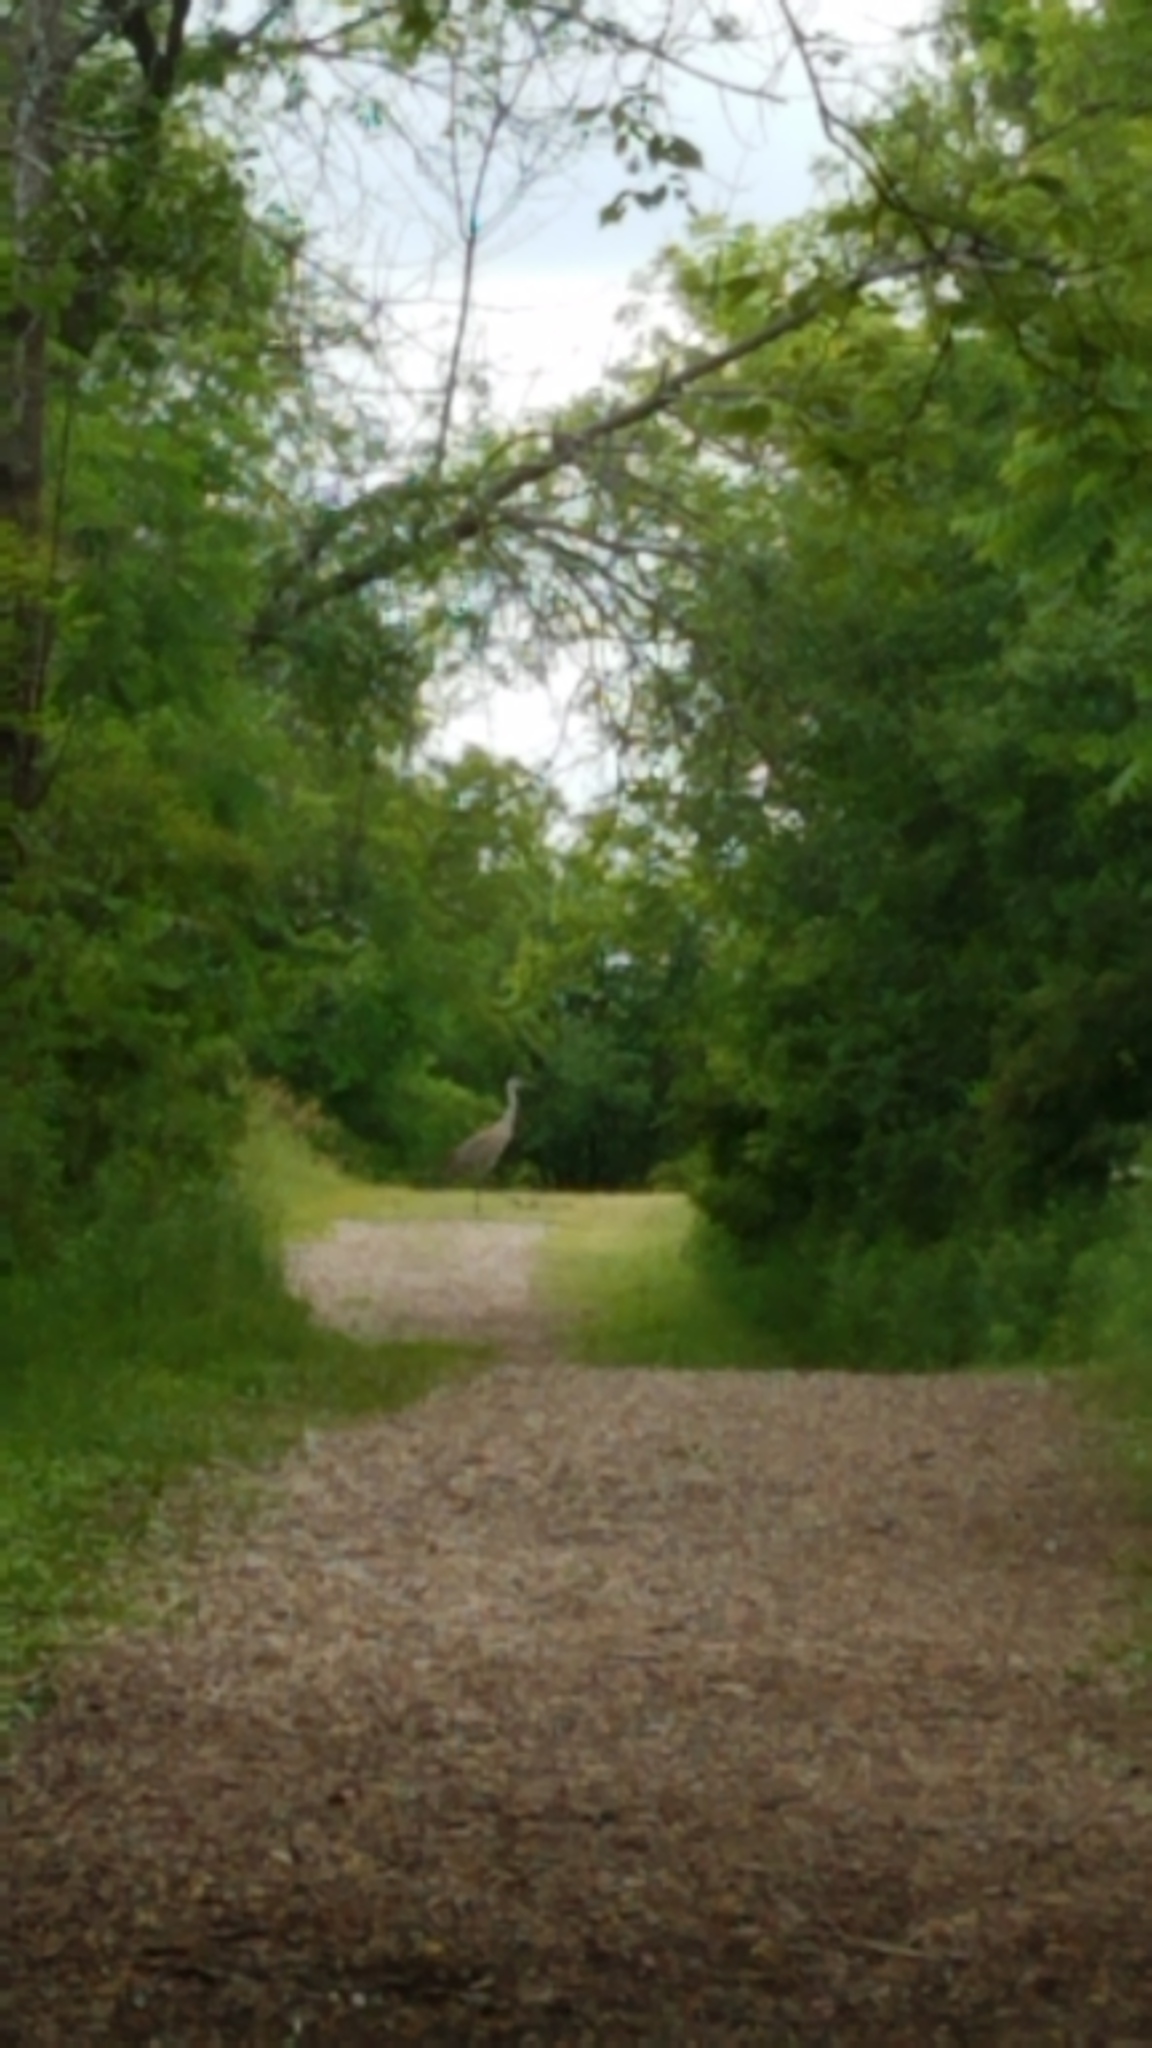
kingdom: Animalia
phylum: Chordata
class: Aves
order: Gruiformes
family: Gruidae
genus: Grus
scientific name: Grus canadensis
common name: Sandhill crane
